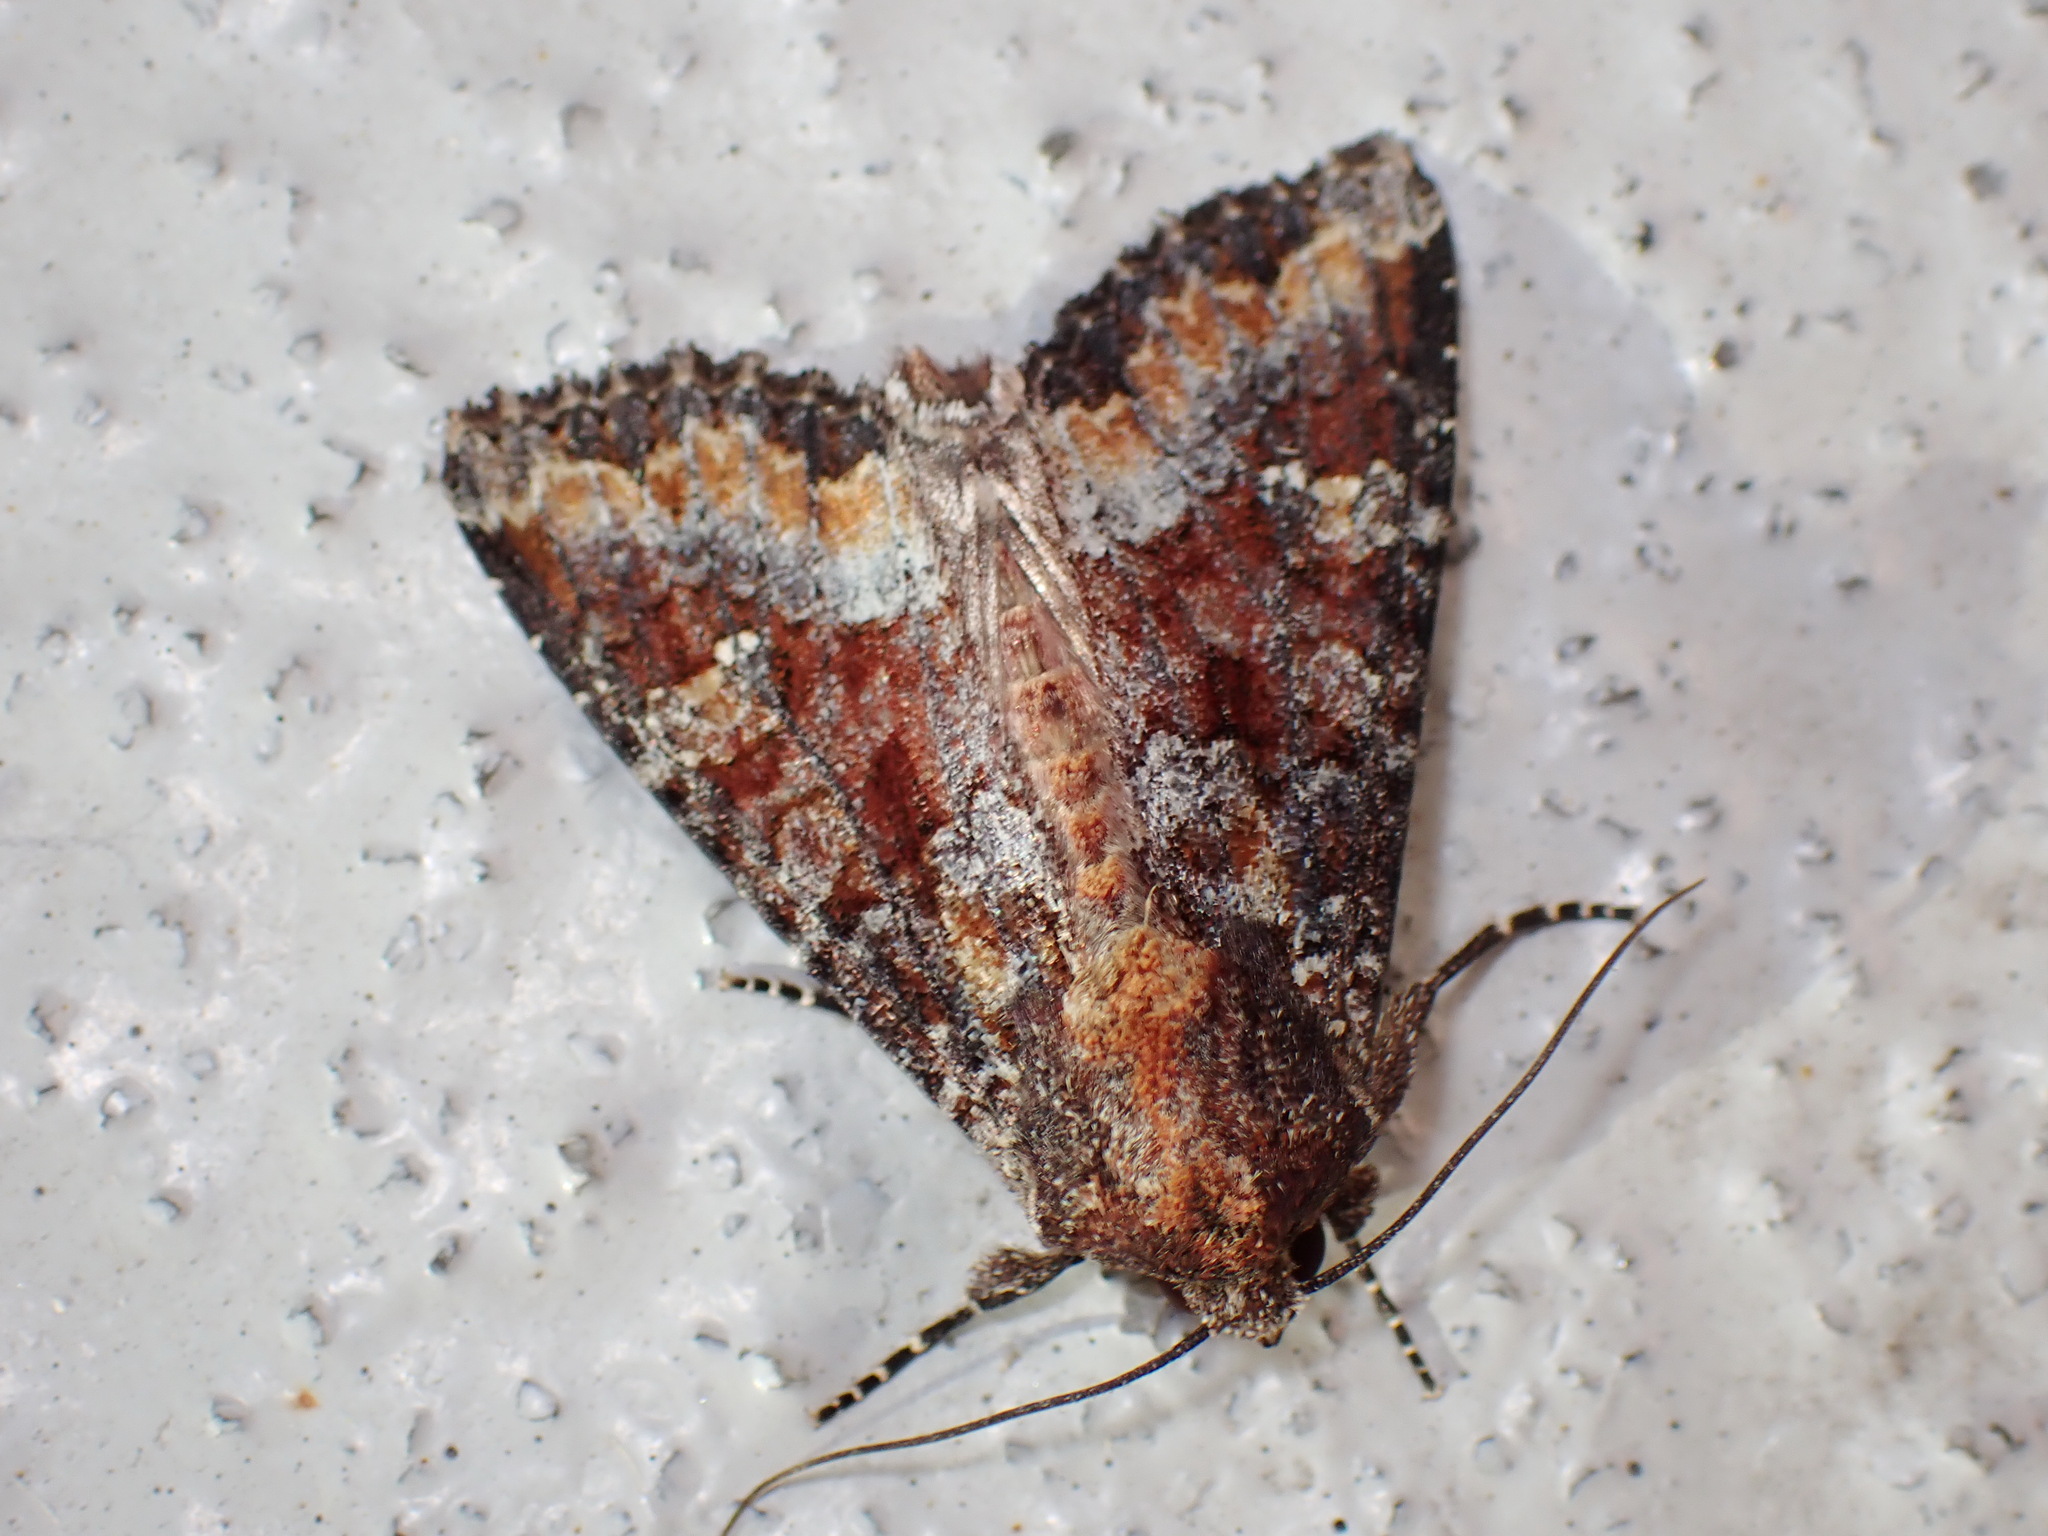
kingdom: Animalia
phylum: Arthropoda
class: Insecta
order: Lepidoptera
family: Noctuidae
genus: Apamea
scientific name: Apamea amputatrix
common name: Yellow-headed cutworm moth
